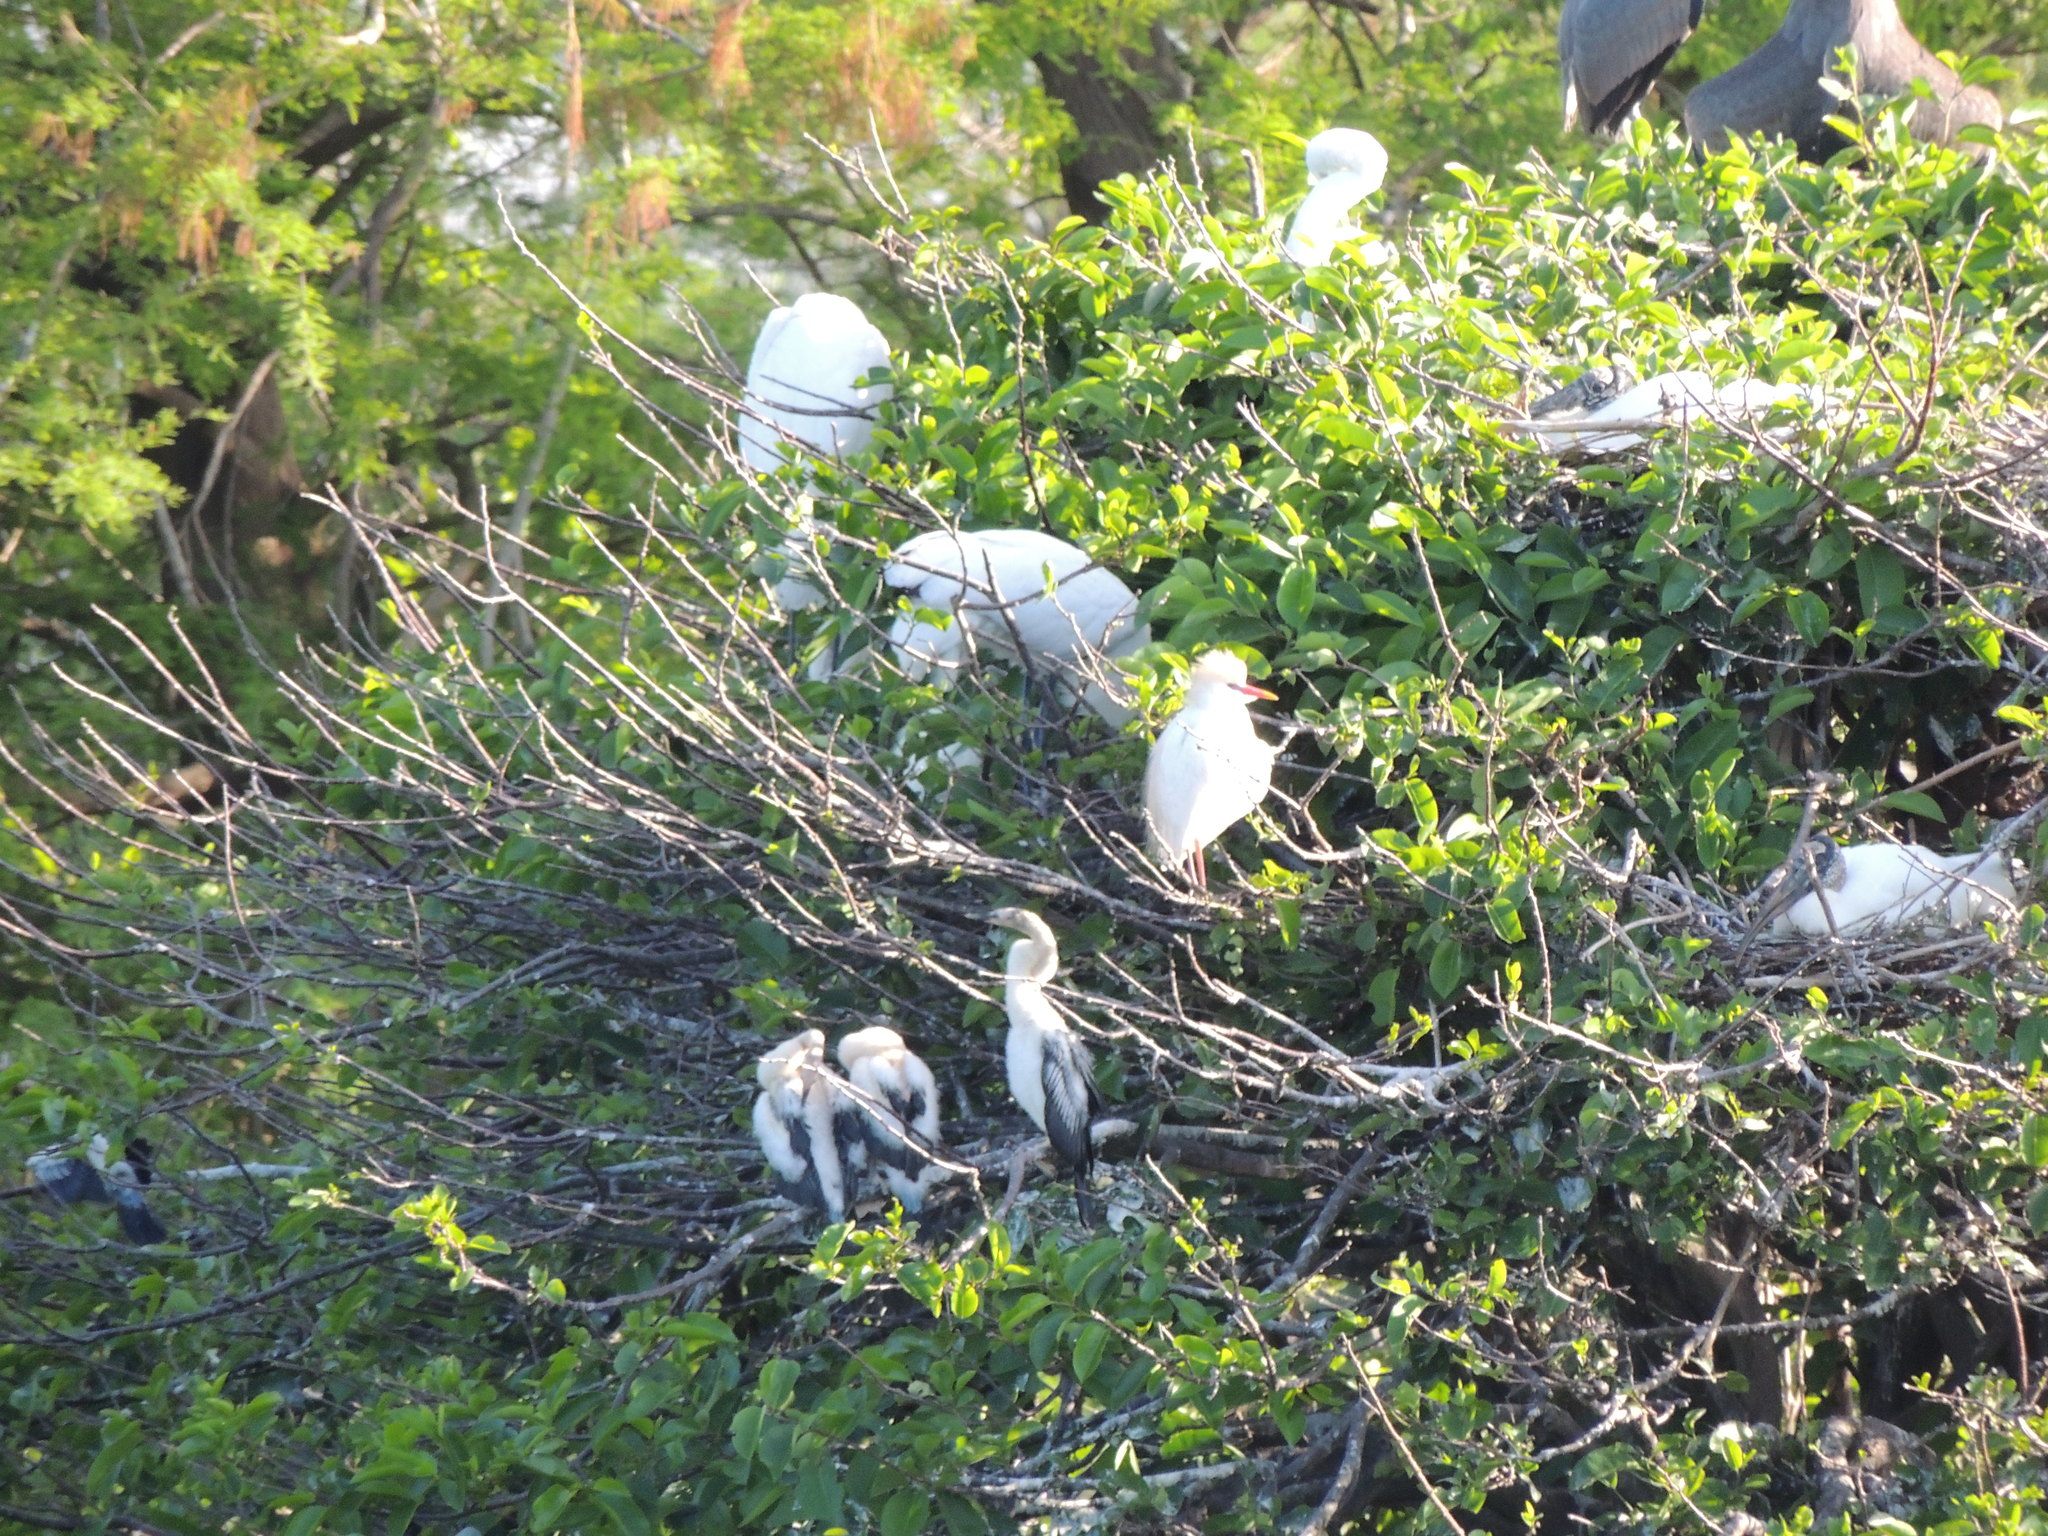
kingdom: Animalia
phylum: Chordata
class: Aves
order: Pelecaniformes
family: Ardeidae
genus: Bubulcus
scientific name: Bubulcus ibis
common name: Cattle egret
